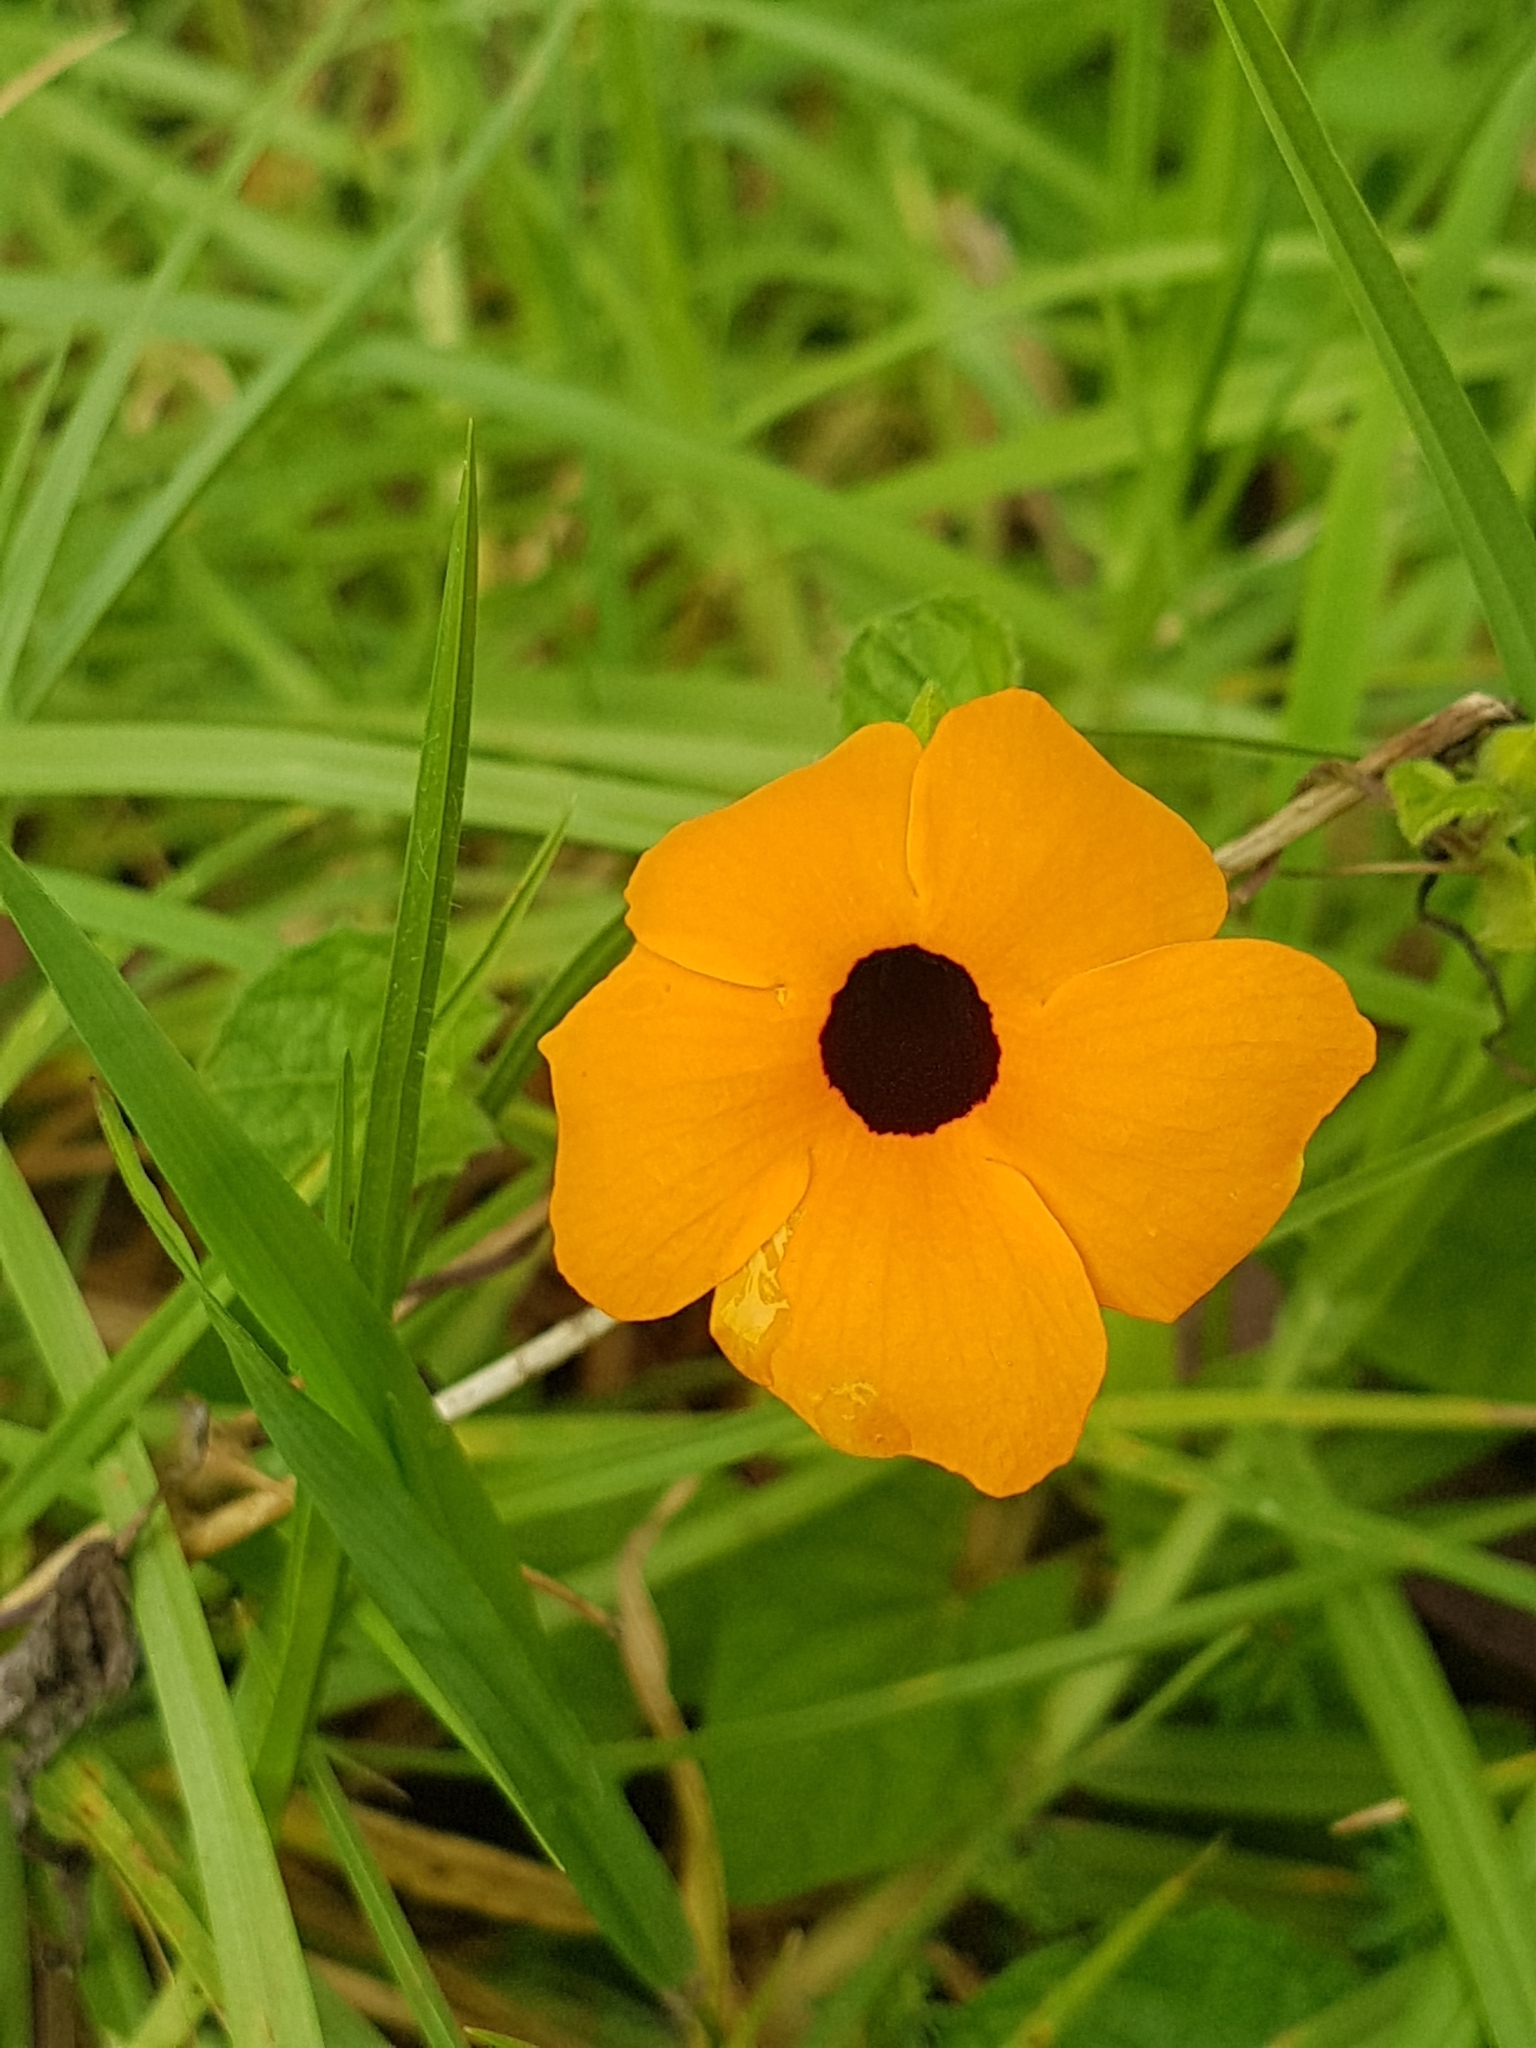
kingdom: Plantae
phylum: Tracheophyta
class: Magnoliopsida
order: Lamiales
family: Acanthaceae
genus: Thunbergia
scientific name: Thunbergia alata
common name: Blackeyed susan vine
